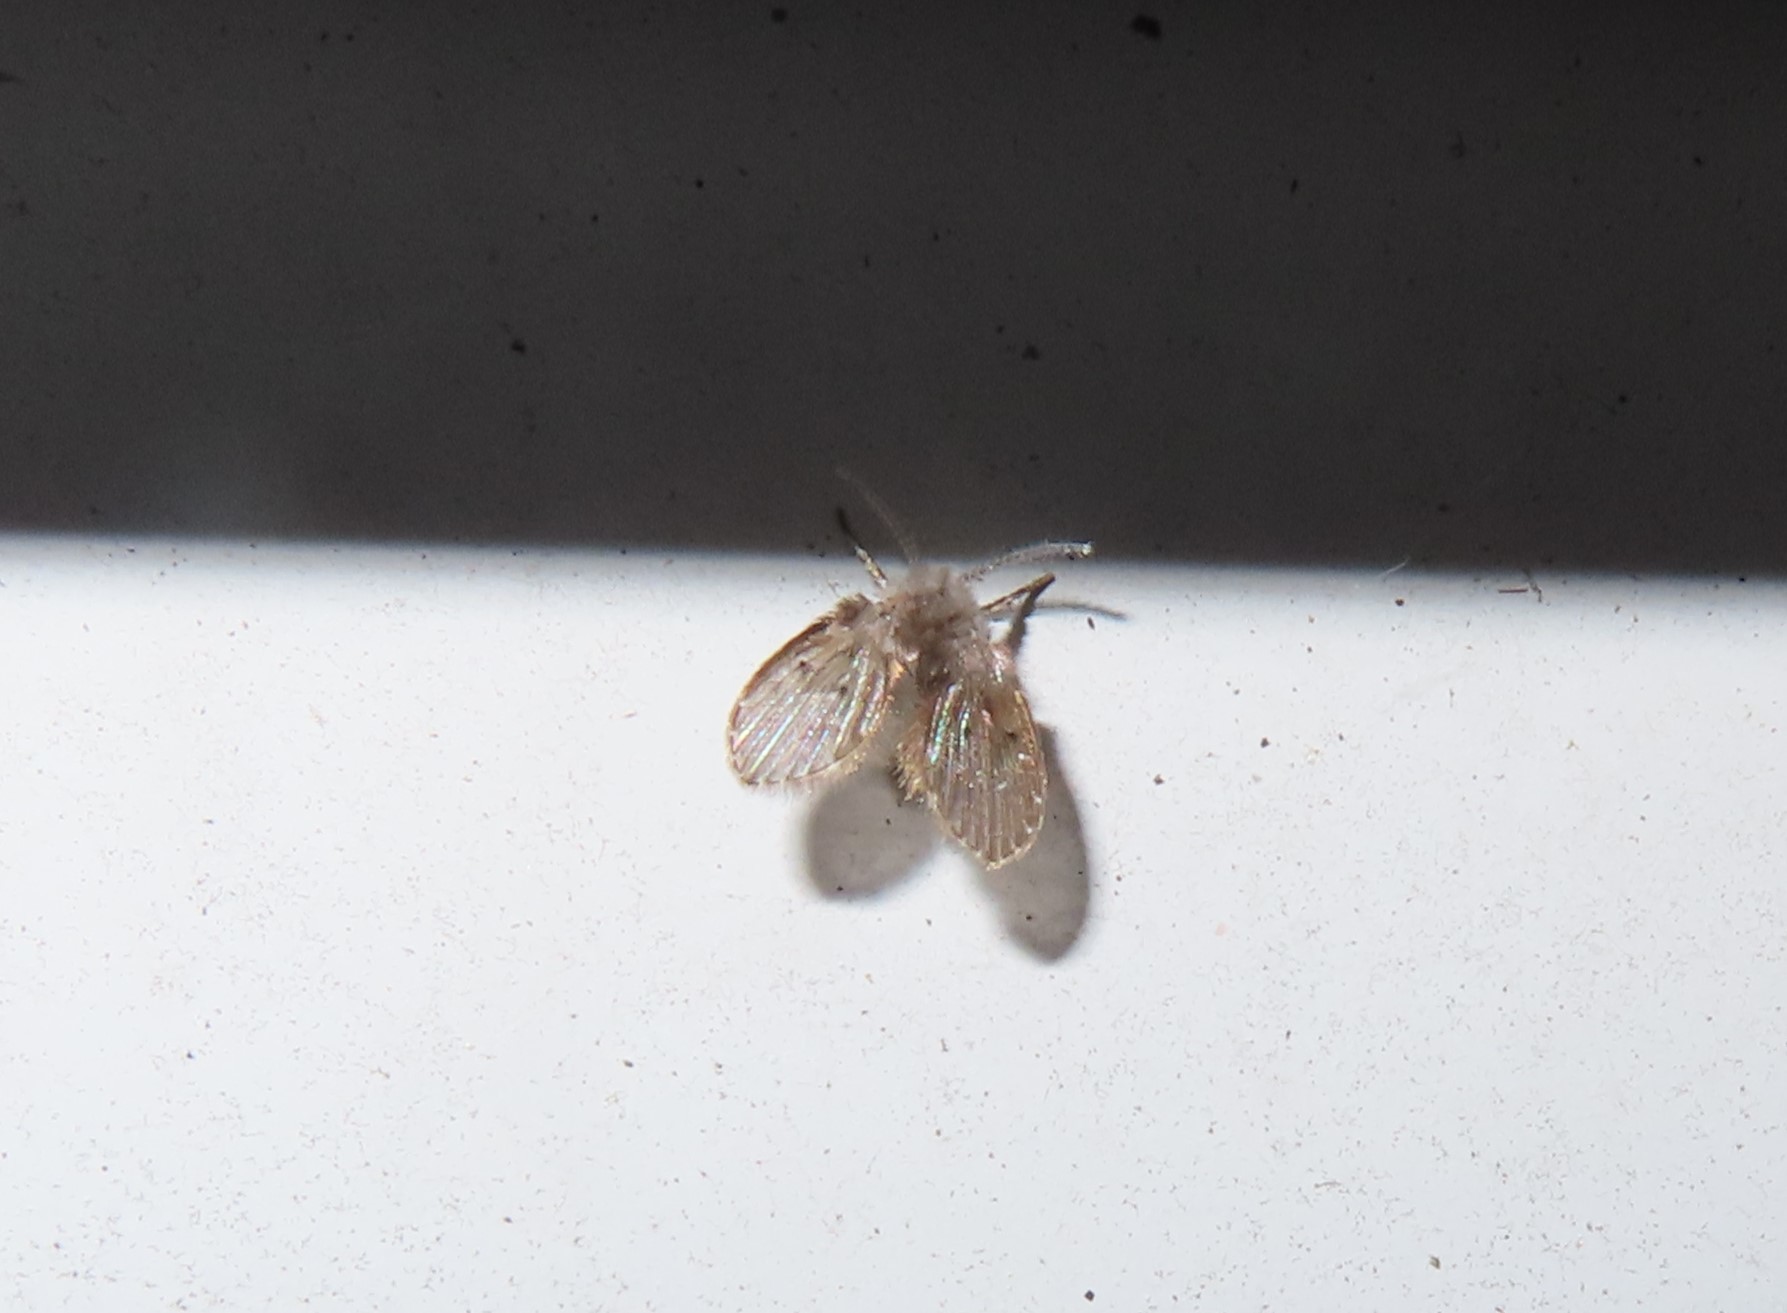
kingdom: Animalia
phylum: Arthropoda
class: Insecta
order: Diptera
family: Psychodidae
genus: Clogmia
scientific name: Clogmia albipunctatus
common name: White-spotted moth fly
